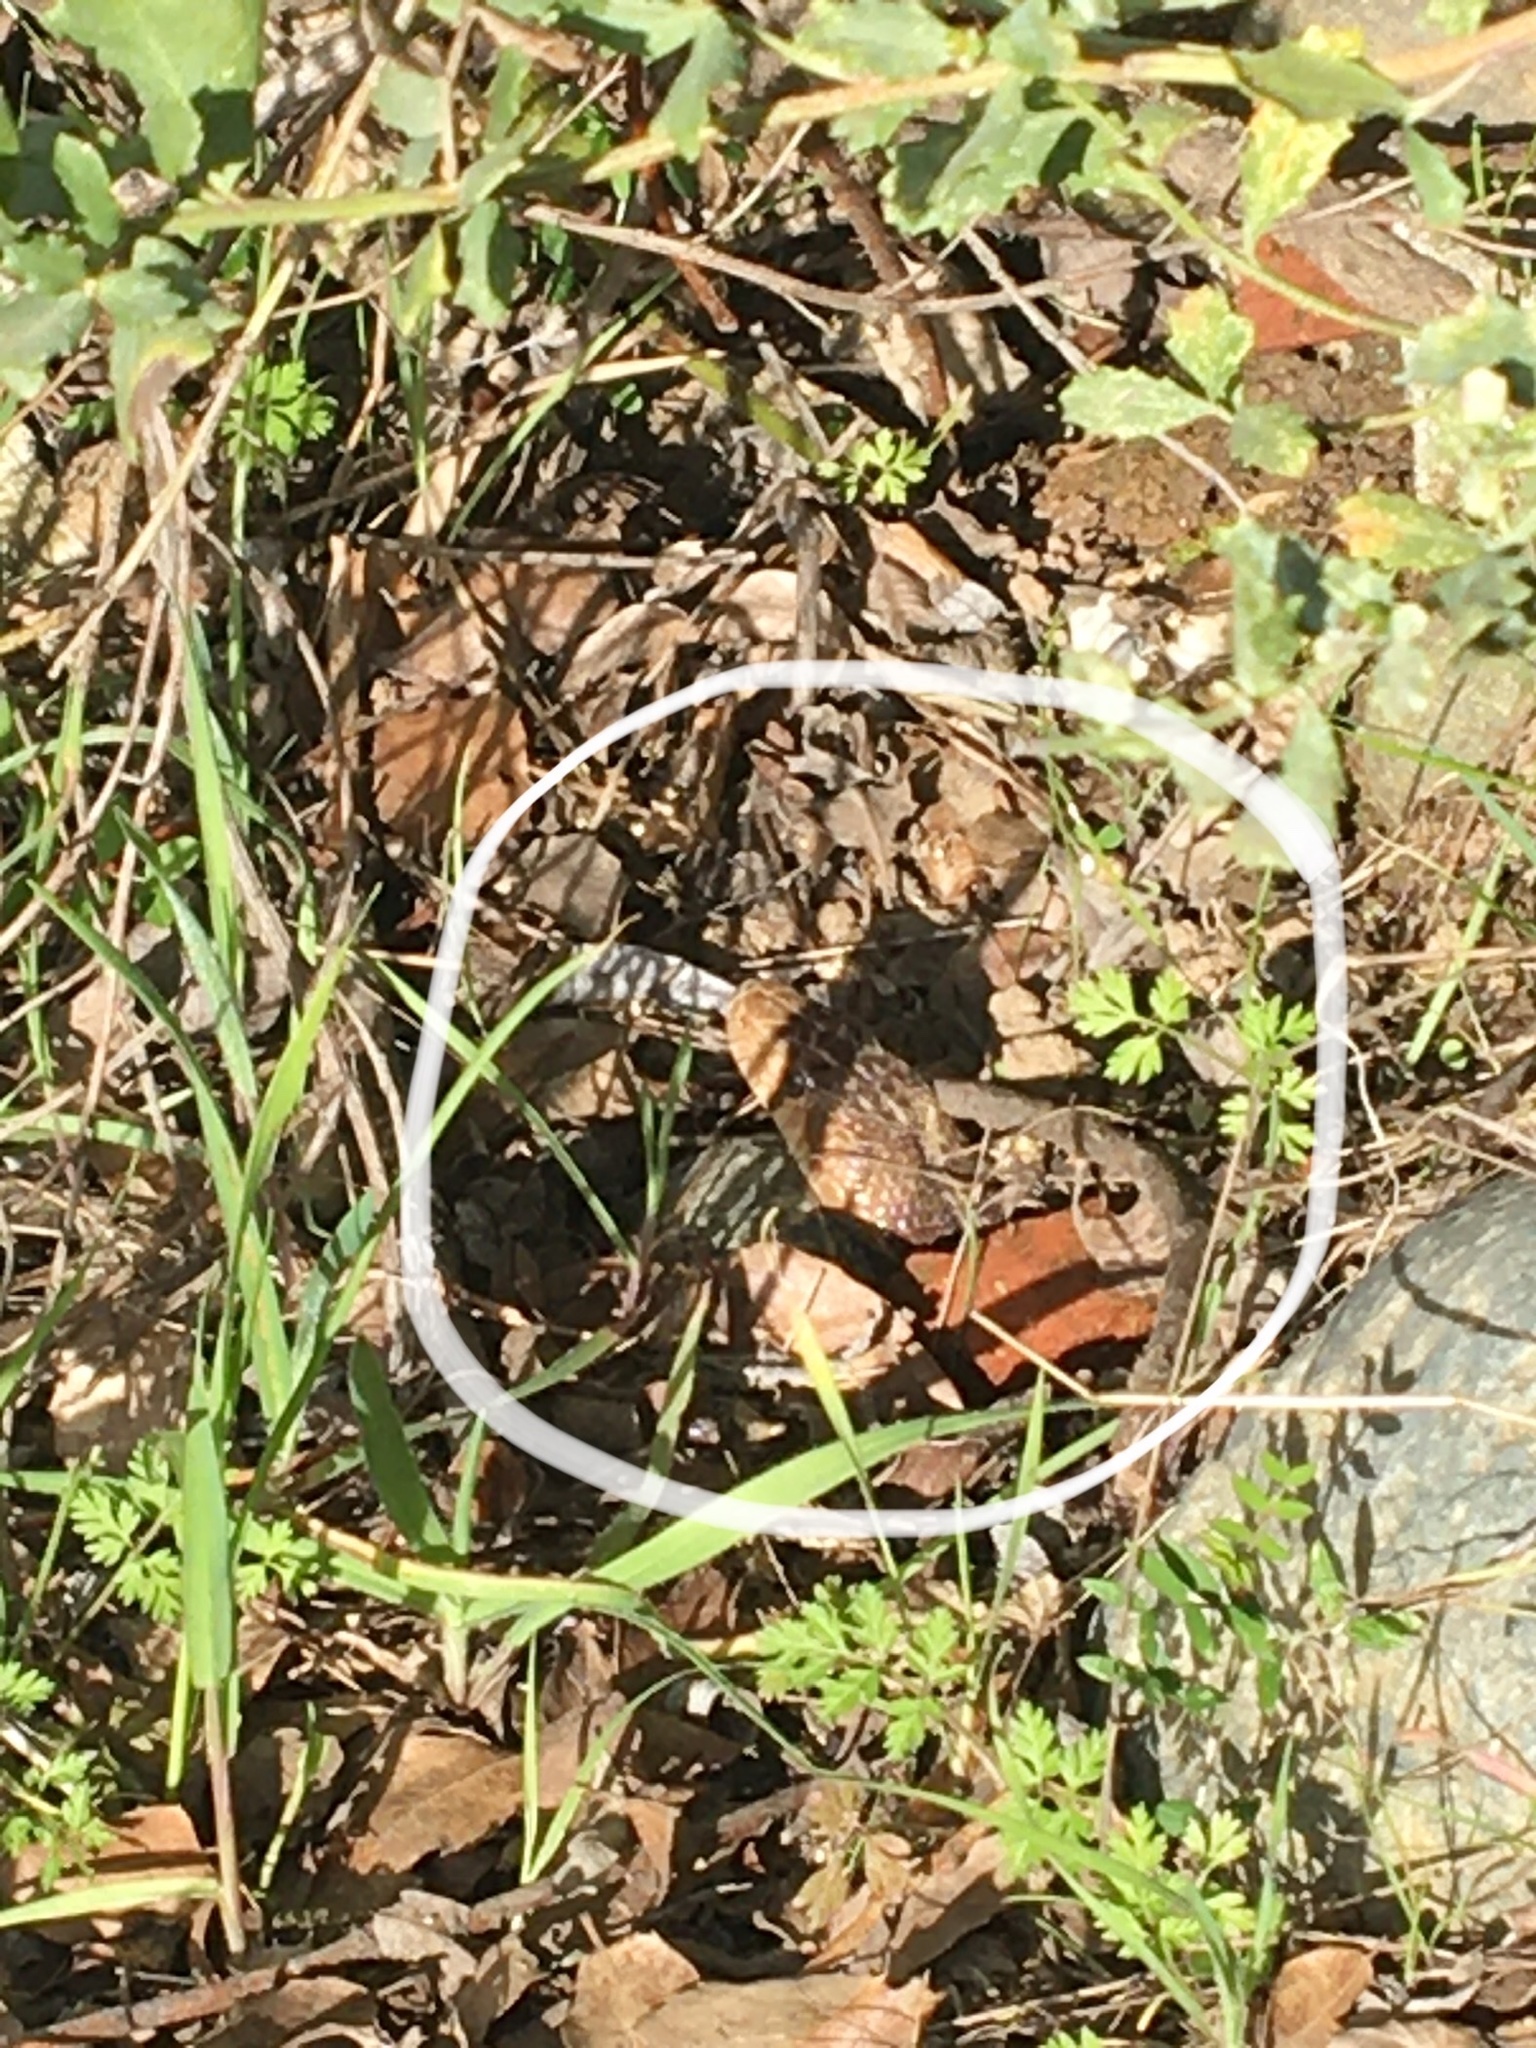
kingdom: Animalia
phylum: Chordata
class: Squamata
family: Colubridae
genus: Pituophis
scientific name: Pituophis catenifer
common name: Gopher snake
